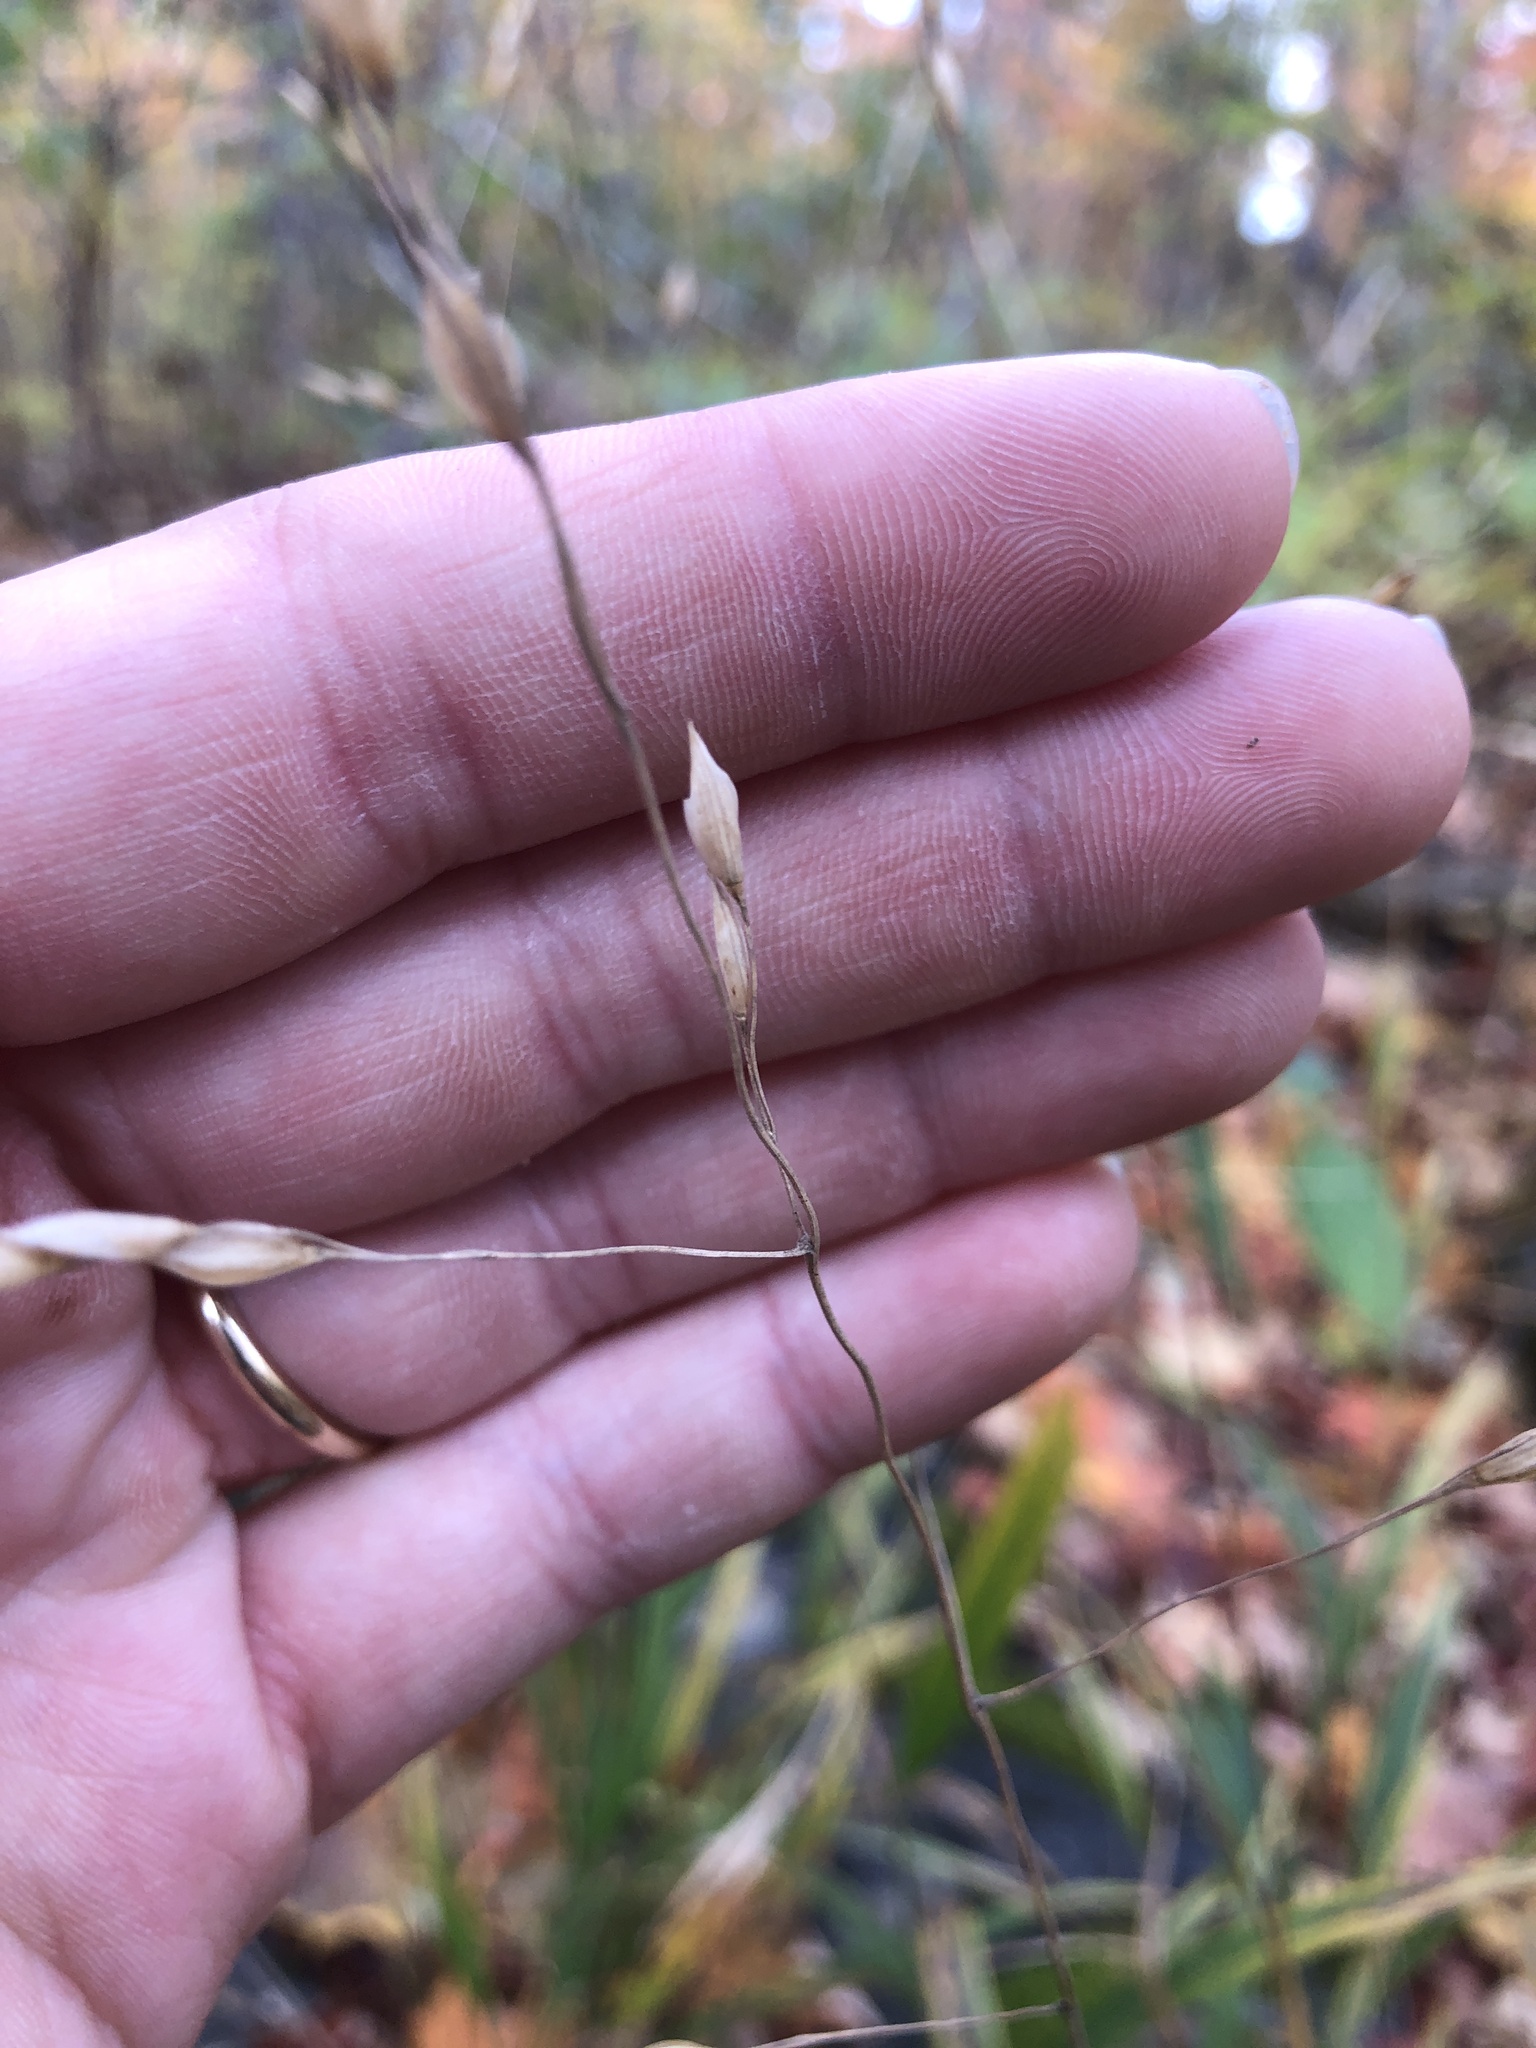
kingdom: Plantae
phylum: Tracheophyta
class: Liliopsida
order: Poales
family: Poaceae
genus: Patis
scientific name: Patis racemosa
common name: Black-fruited mountain rice
